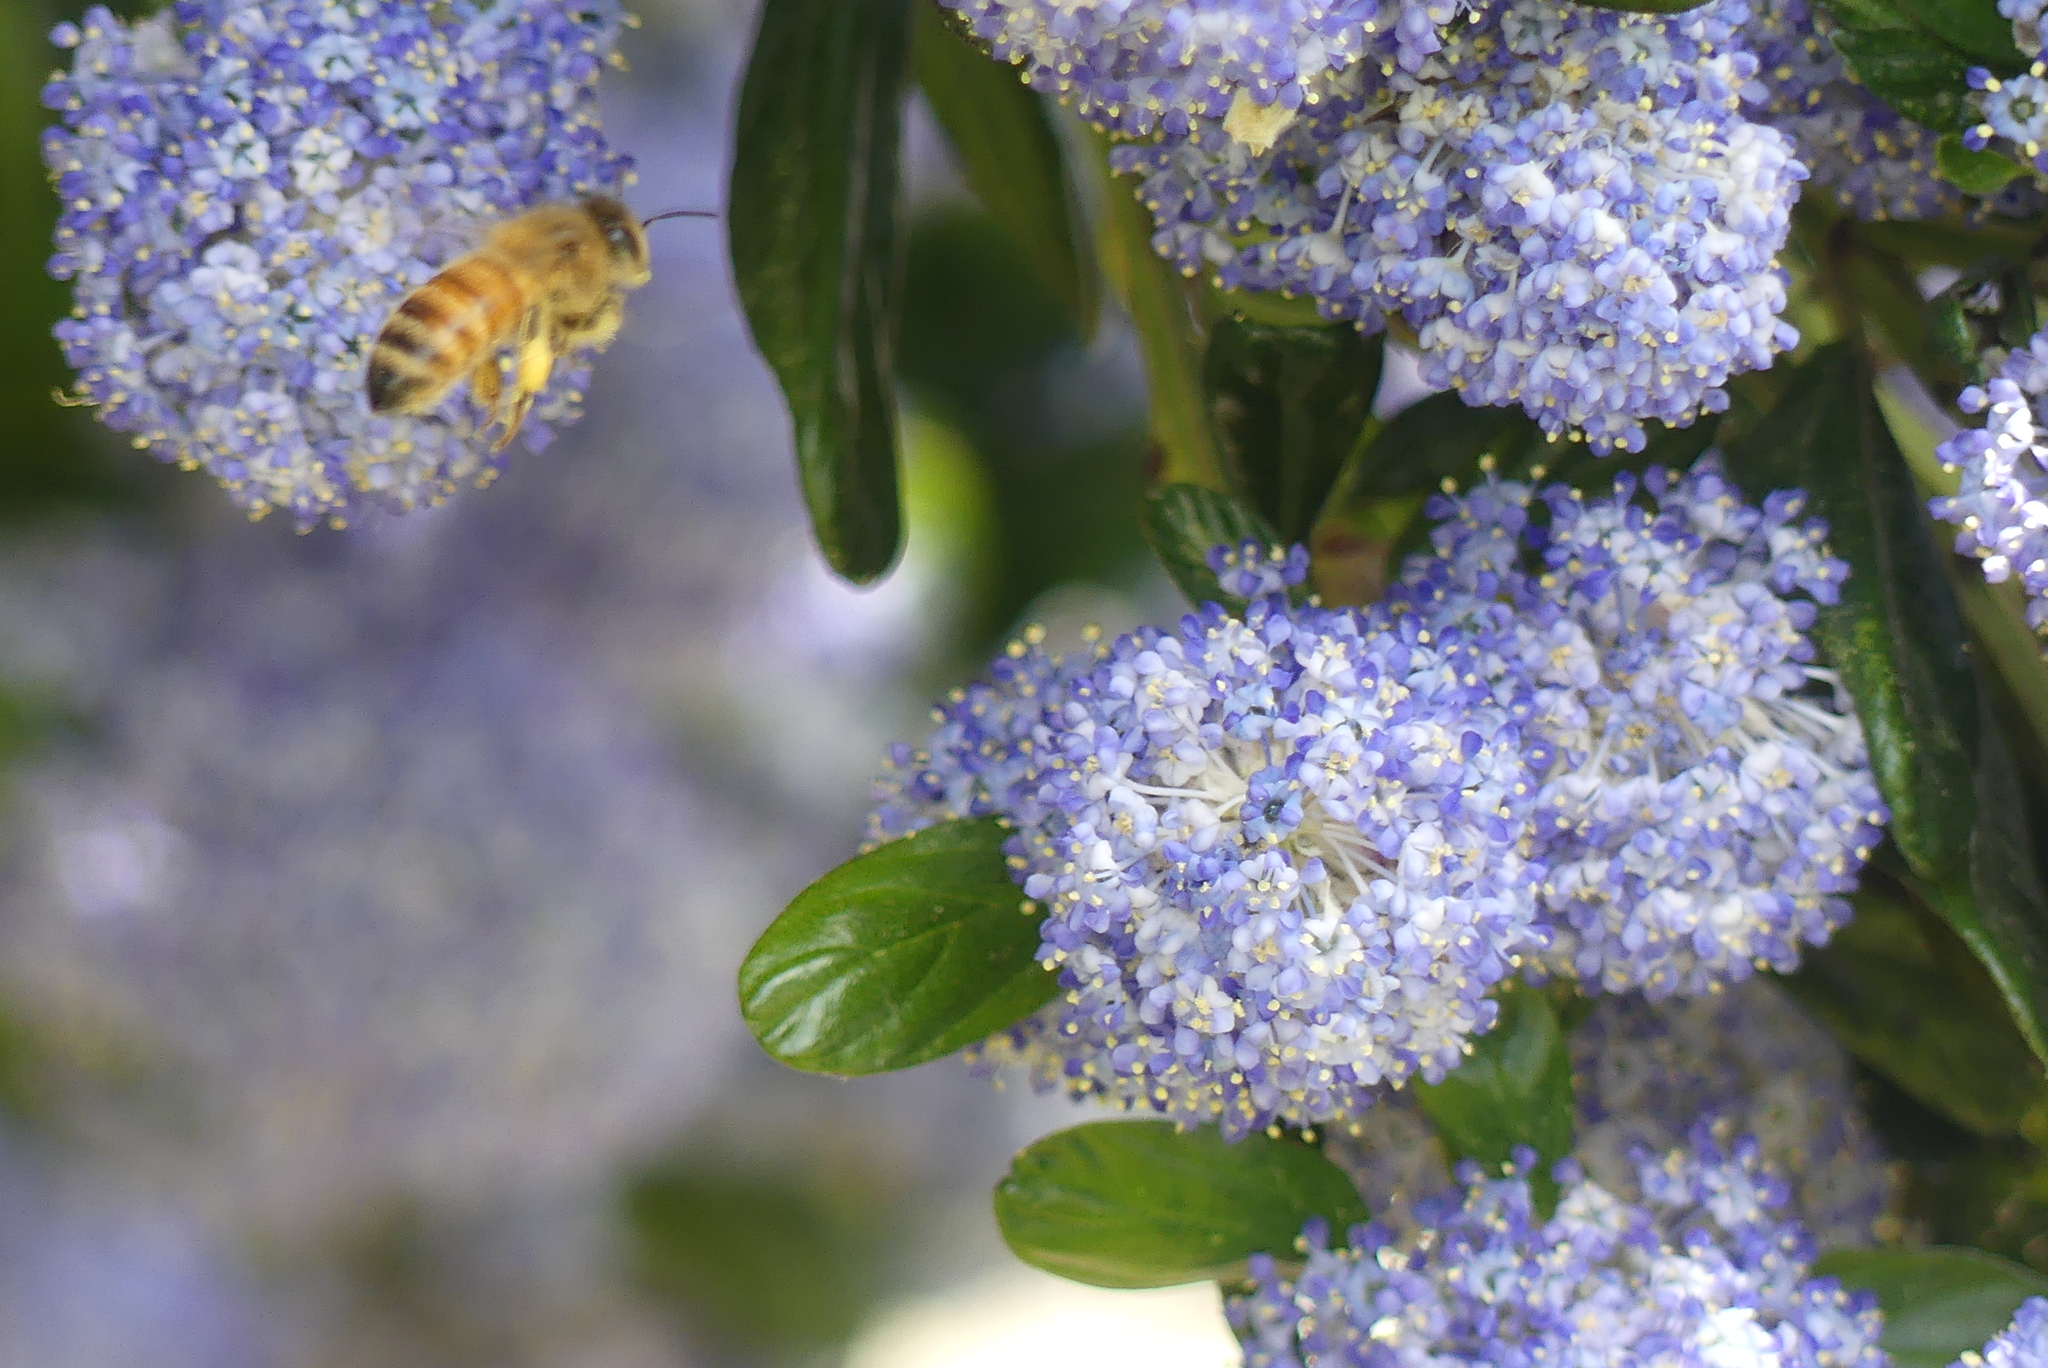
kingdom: Animalia
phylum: Arthropoda
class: Insecta
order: Hymenoptera
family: Apidae
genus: Apis
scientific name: Apis mellifera
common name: Honey bee
